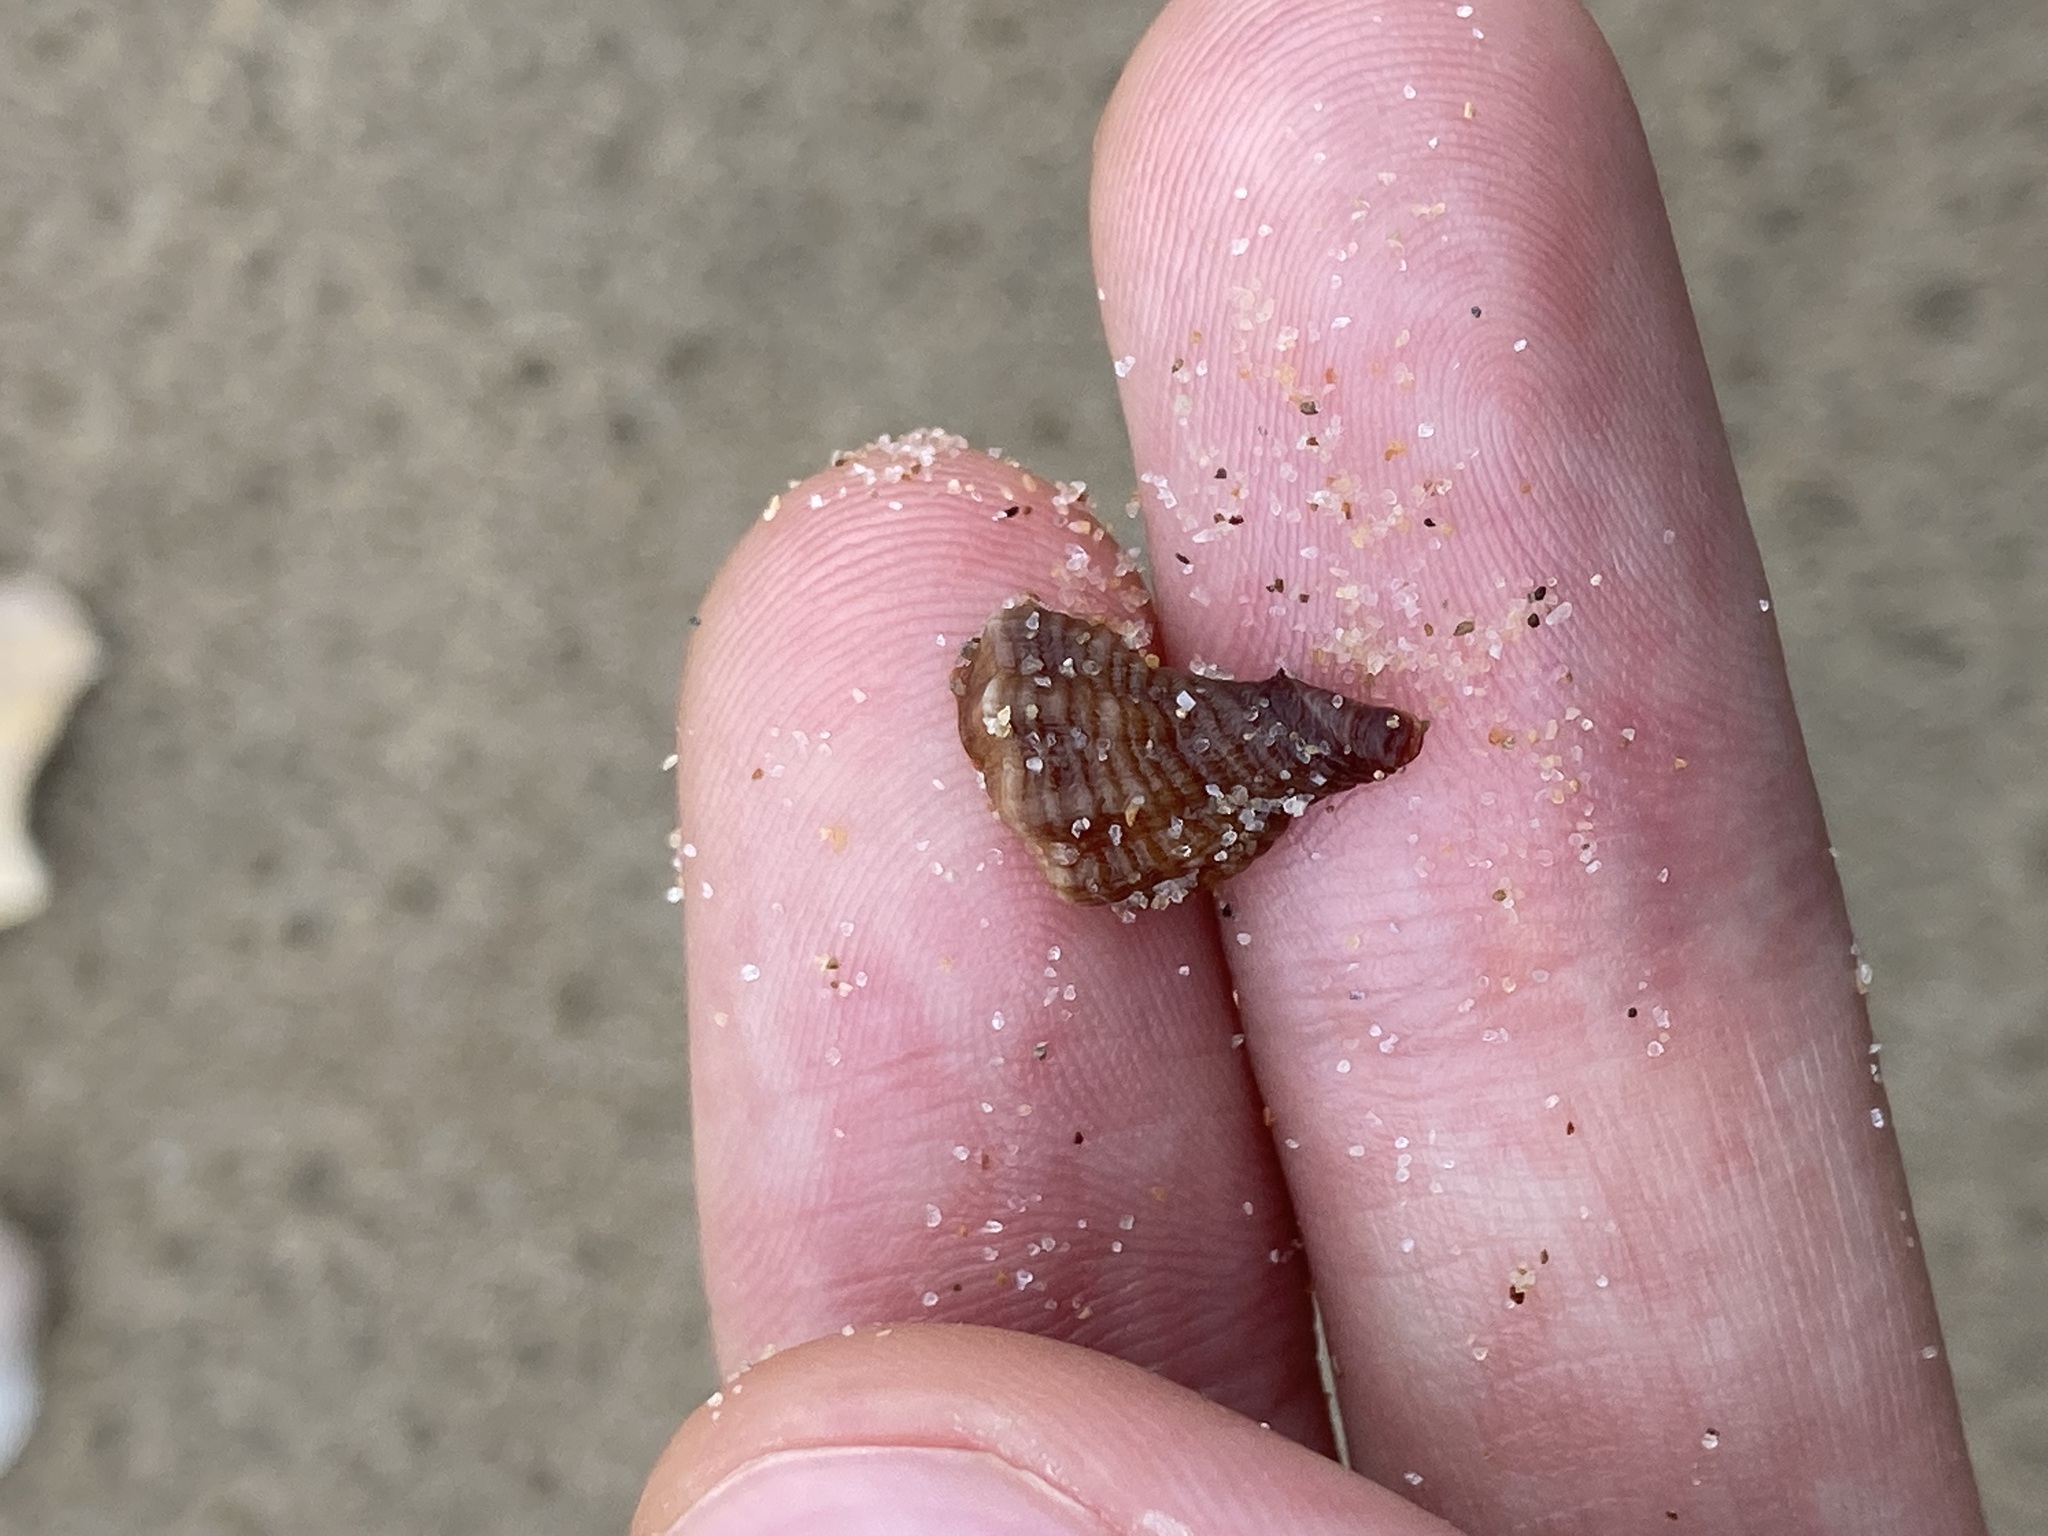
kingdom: Animalia
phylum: Mollusca
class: Gastropoda
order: Neogastropoda
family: Muricidae
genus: Bedeva
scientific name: Bedeva paivae
